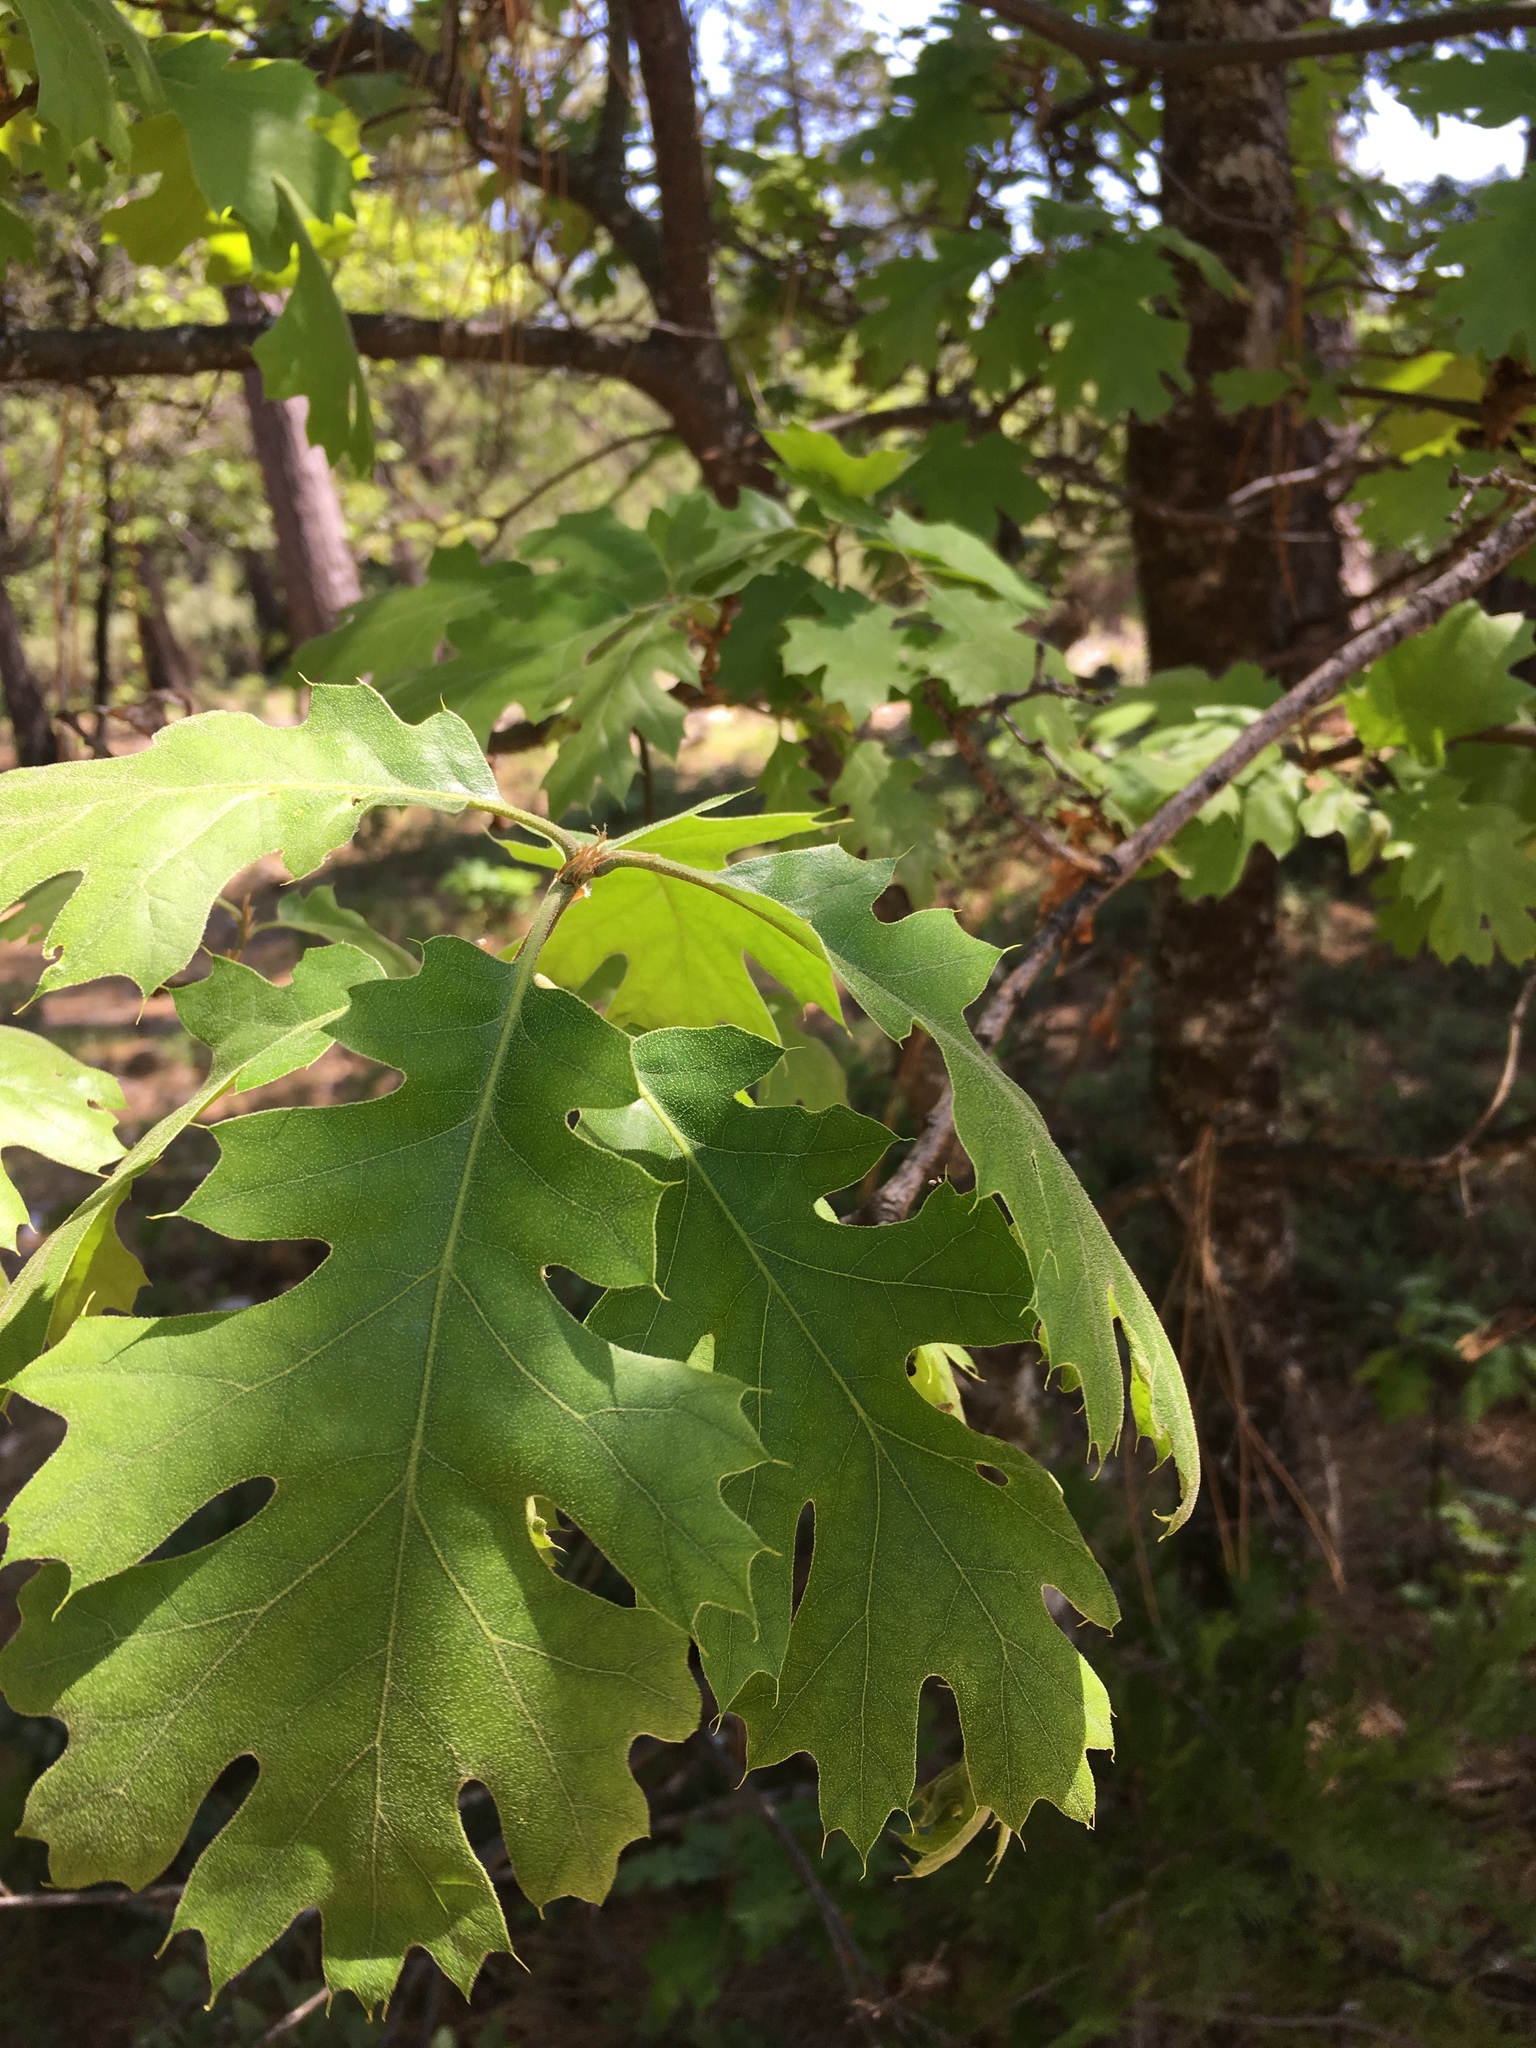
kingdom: Plantae
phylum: Tracheophyta
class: Magnoliopsida
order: Fagales
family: Fagaceae
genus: Quercus
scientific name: Quercus kelloggii
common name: California black oak
